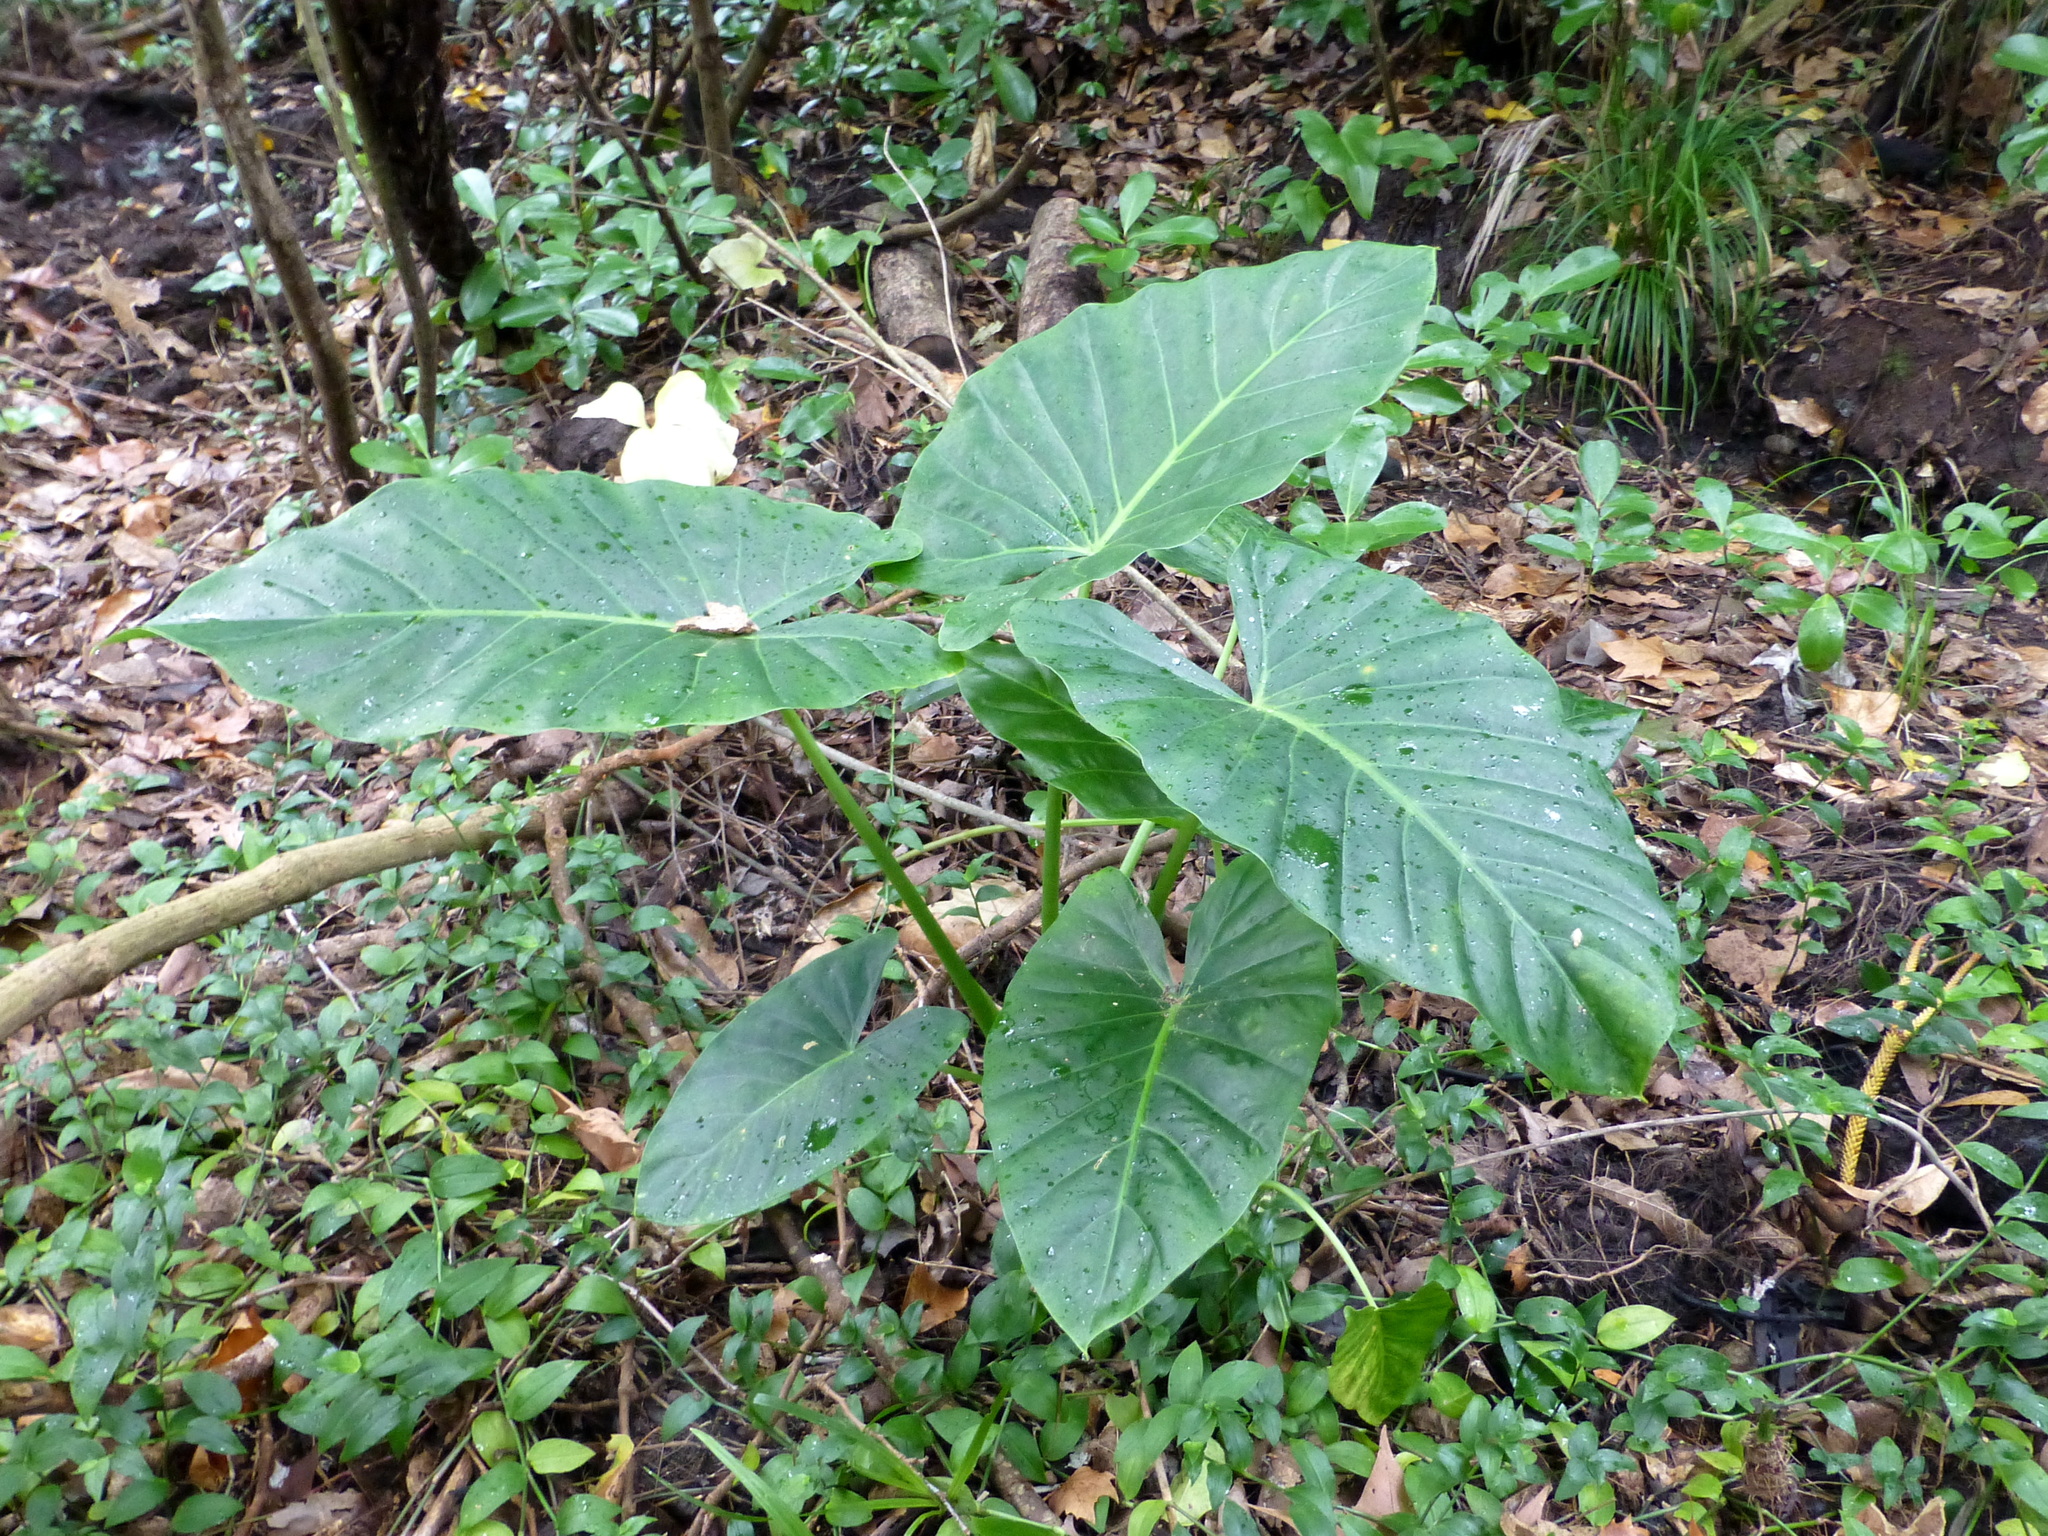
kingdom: Plantae
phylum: Tracheophyta
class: Liliopsida
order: Alismatales
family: Araceae
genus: Alocasia
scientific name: Alocasia brisbanensis
